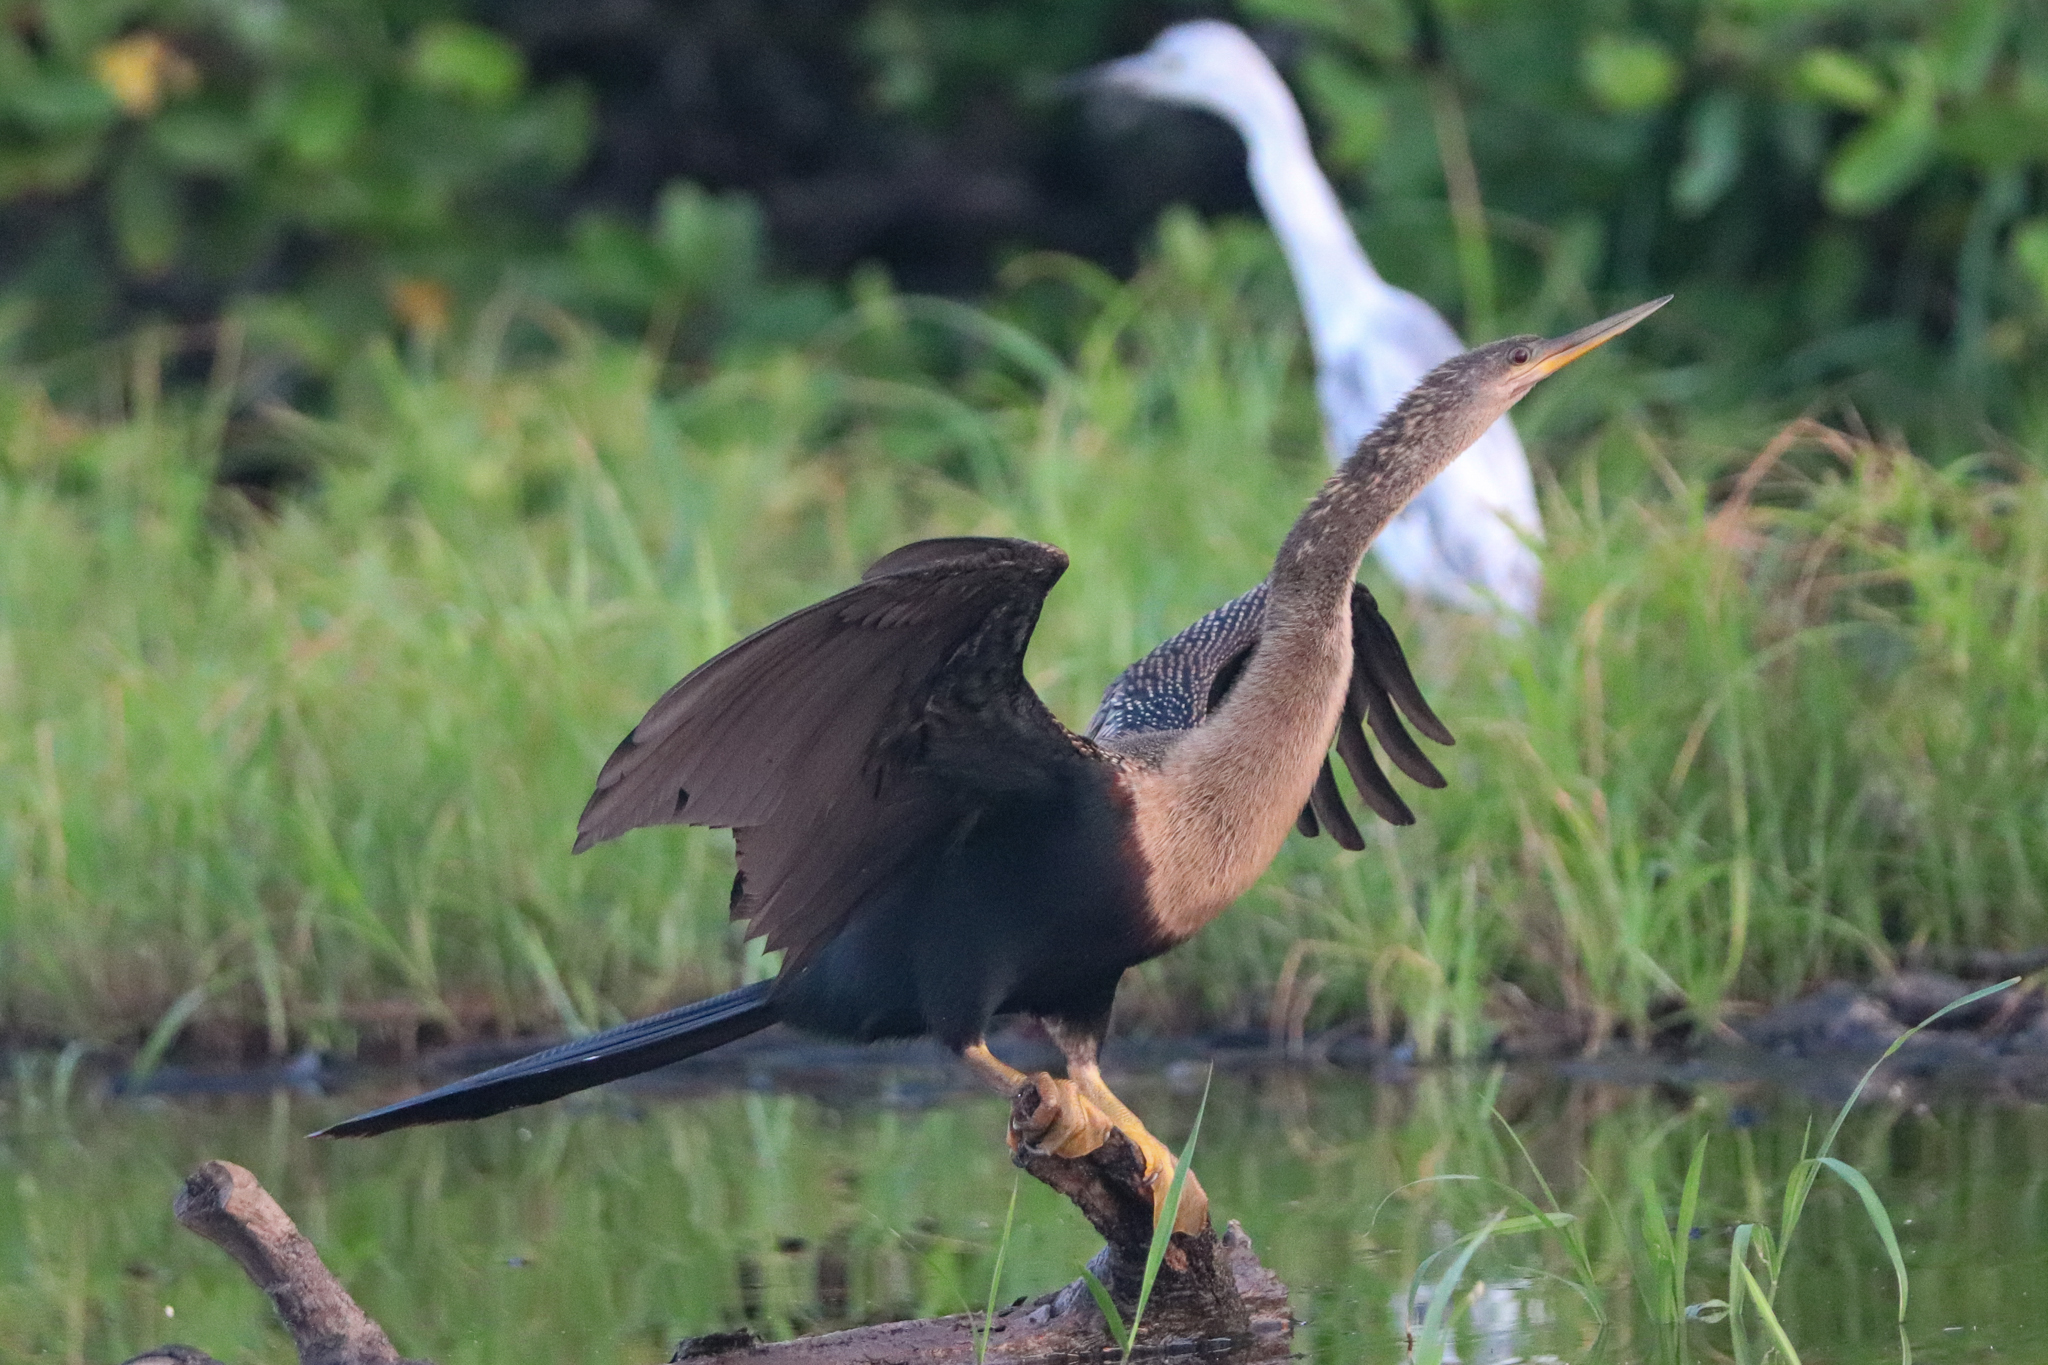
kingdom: Animalia
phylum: Chordata
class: Aves
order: Suliformes
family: Anhingidae
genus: Anhinga
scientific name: Anhinga anhinga
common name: Anhinga
